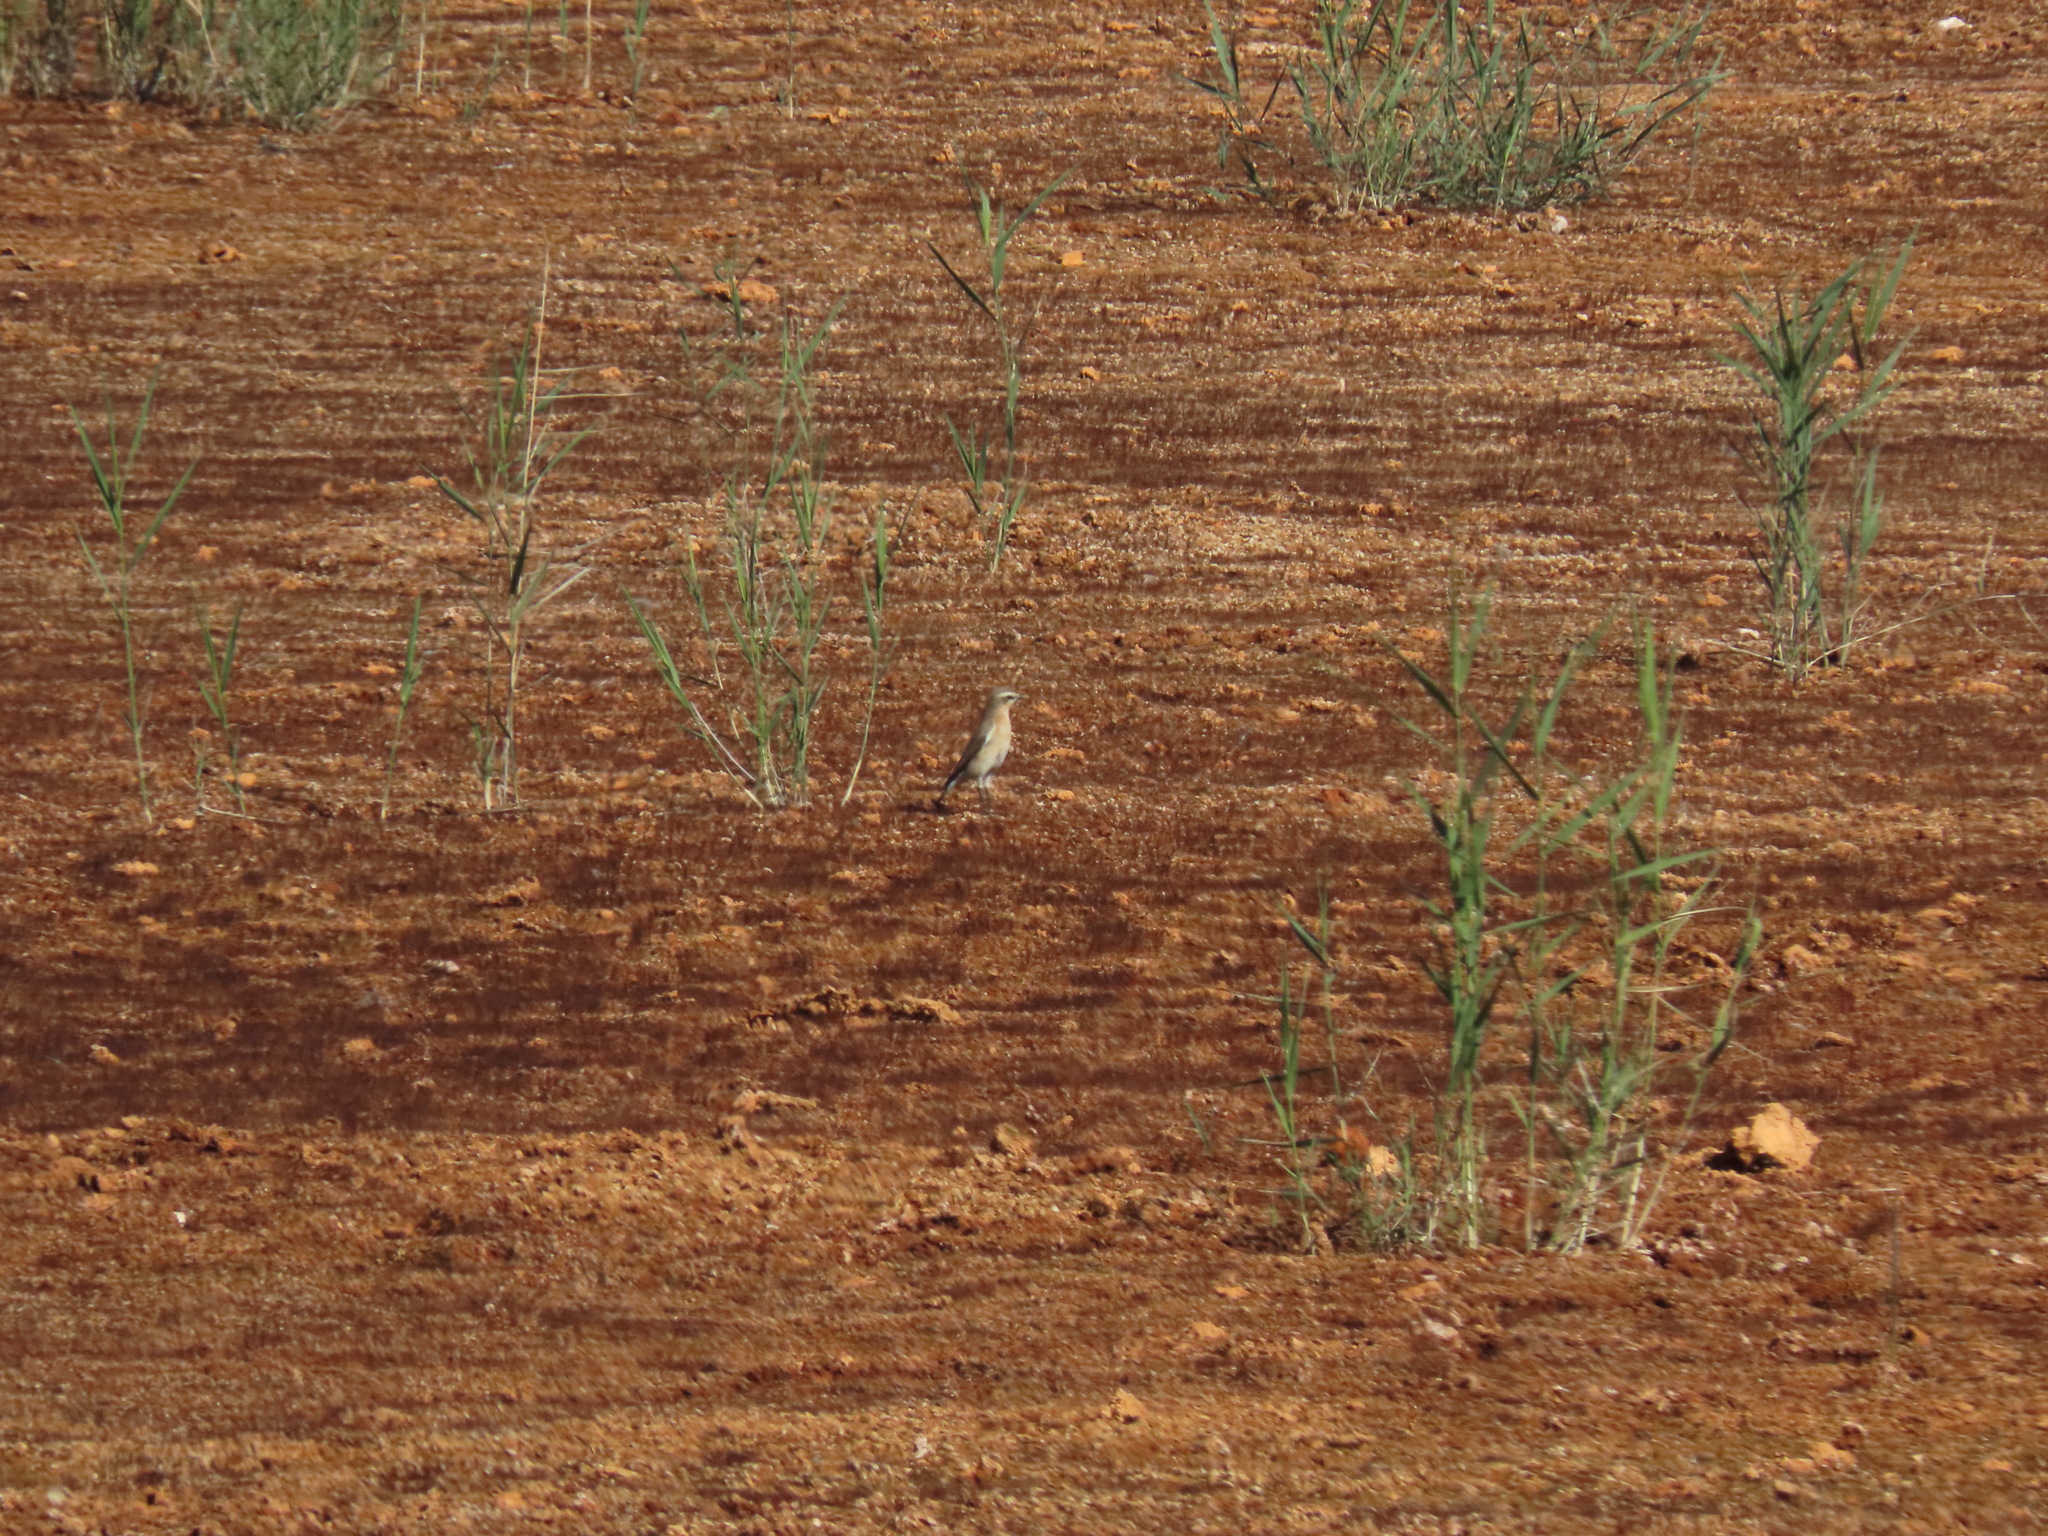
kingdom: Animalia
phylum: Chordata
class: Aves
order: Passeriformes
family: Muscicapidae
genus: Oenanthe
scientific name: Oenanthe oenanthe
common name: Northern wheatear
